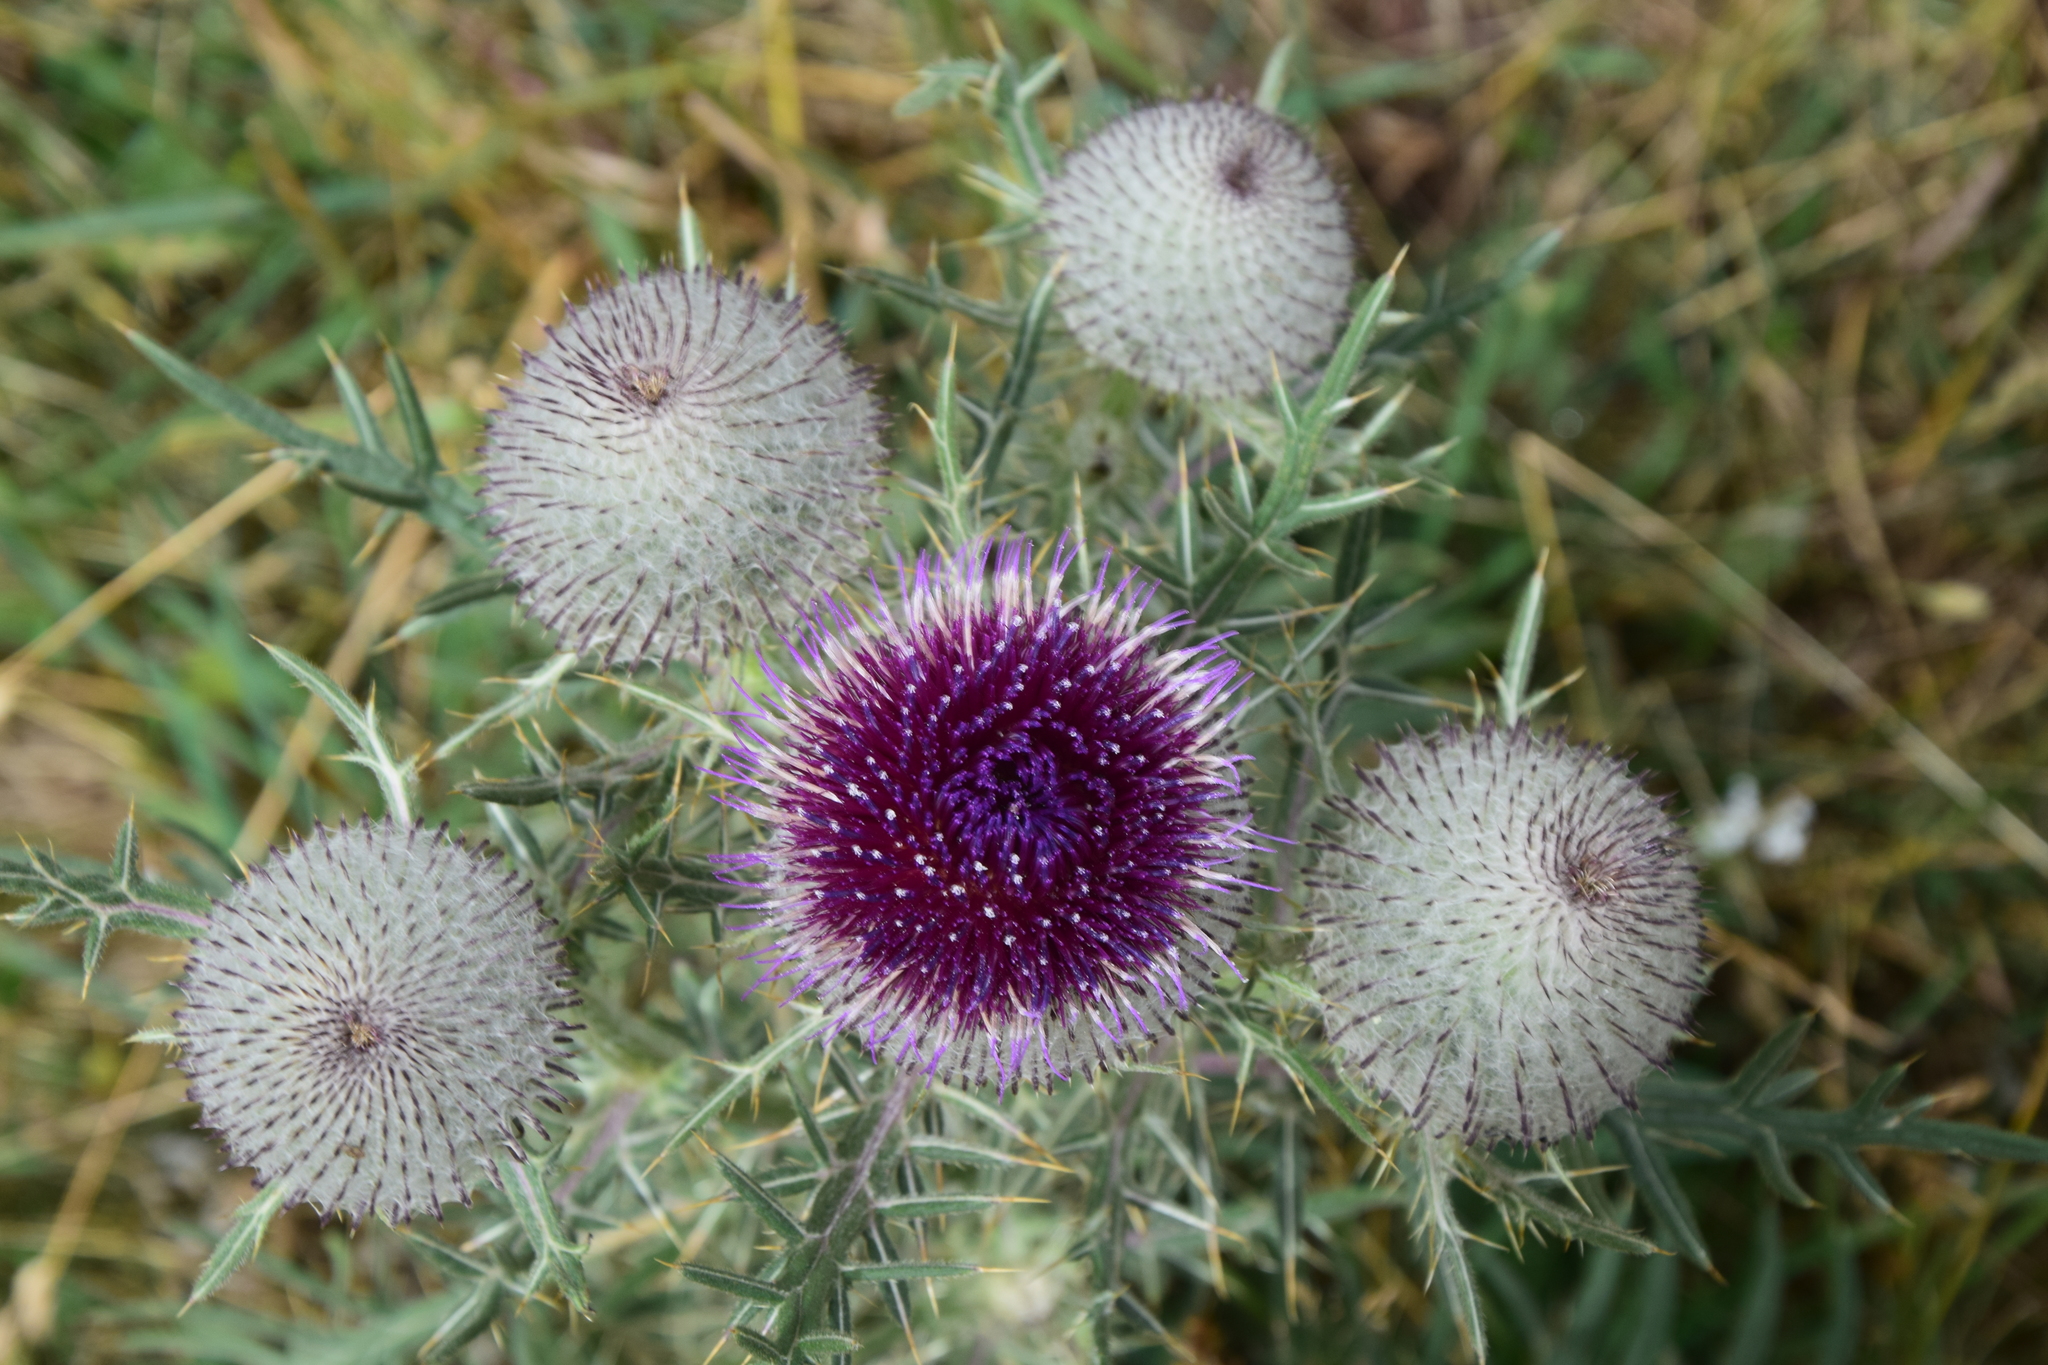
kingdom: Plantae
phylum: Tracheophyta
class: Magnoliopsida
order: Asterales
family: Asteraceae
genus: Lophiolepis
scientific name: Lophiolepis eriophora
